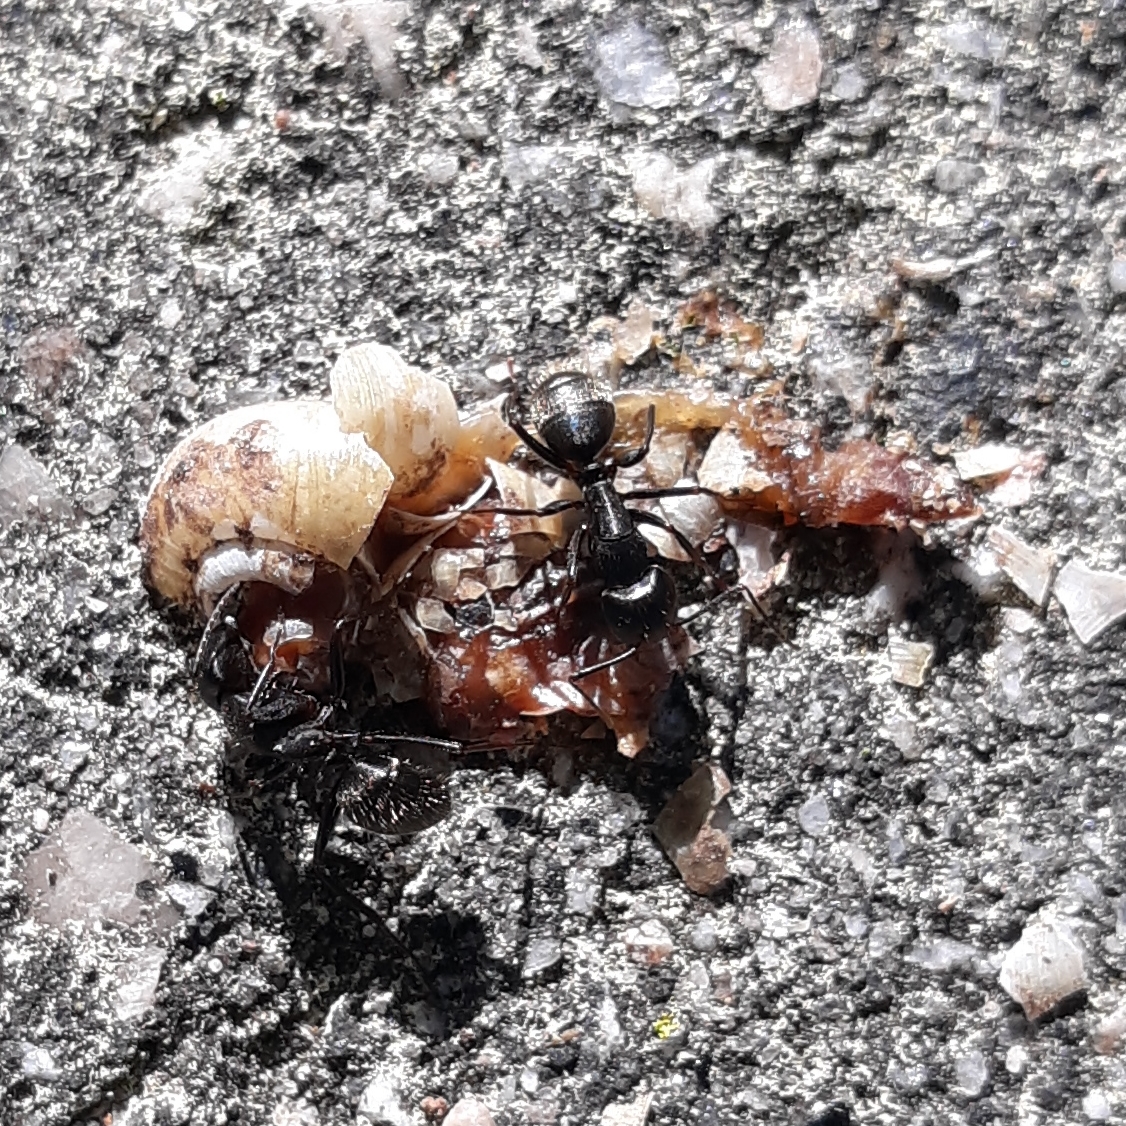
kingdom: Animalia
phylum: Arthropoda
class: Insecta
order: Hymenoptera
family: Formicidae
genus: Camponotus
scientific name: Camponotus pennsylvanicus
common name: Black carpenter ant
